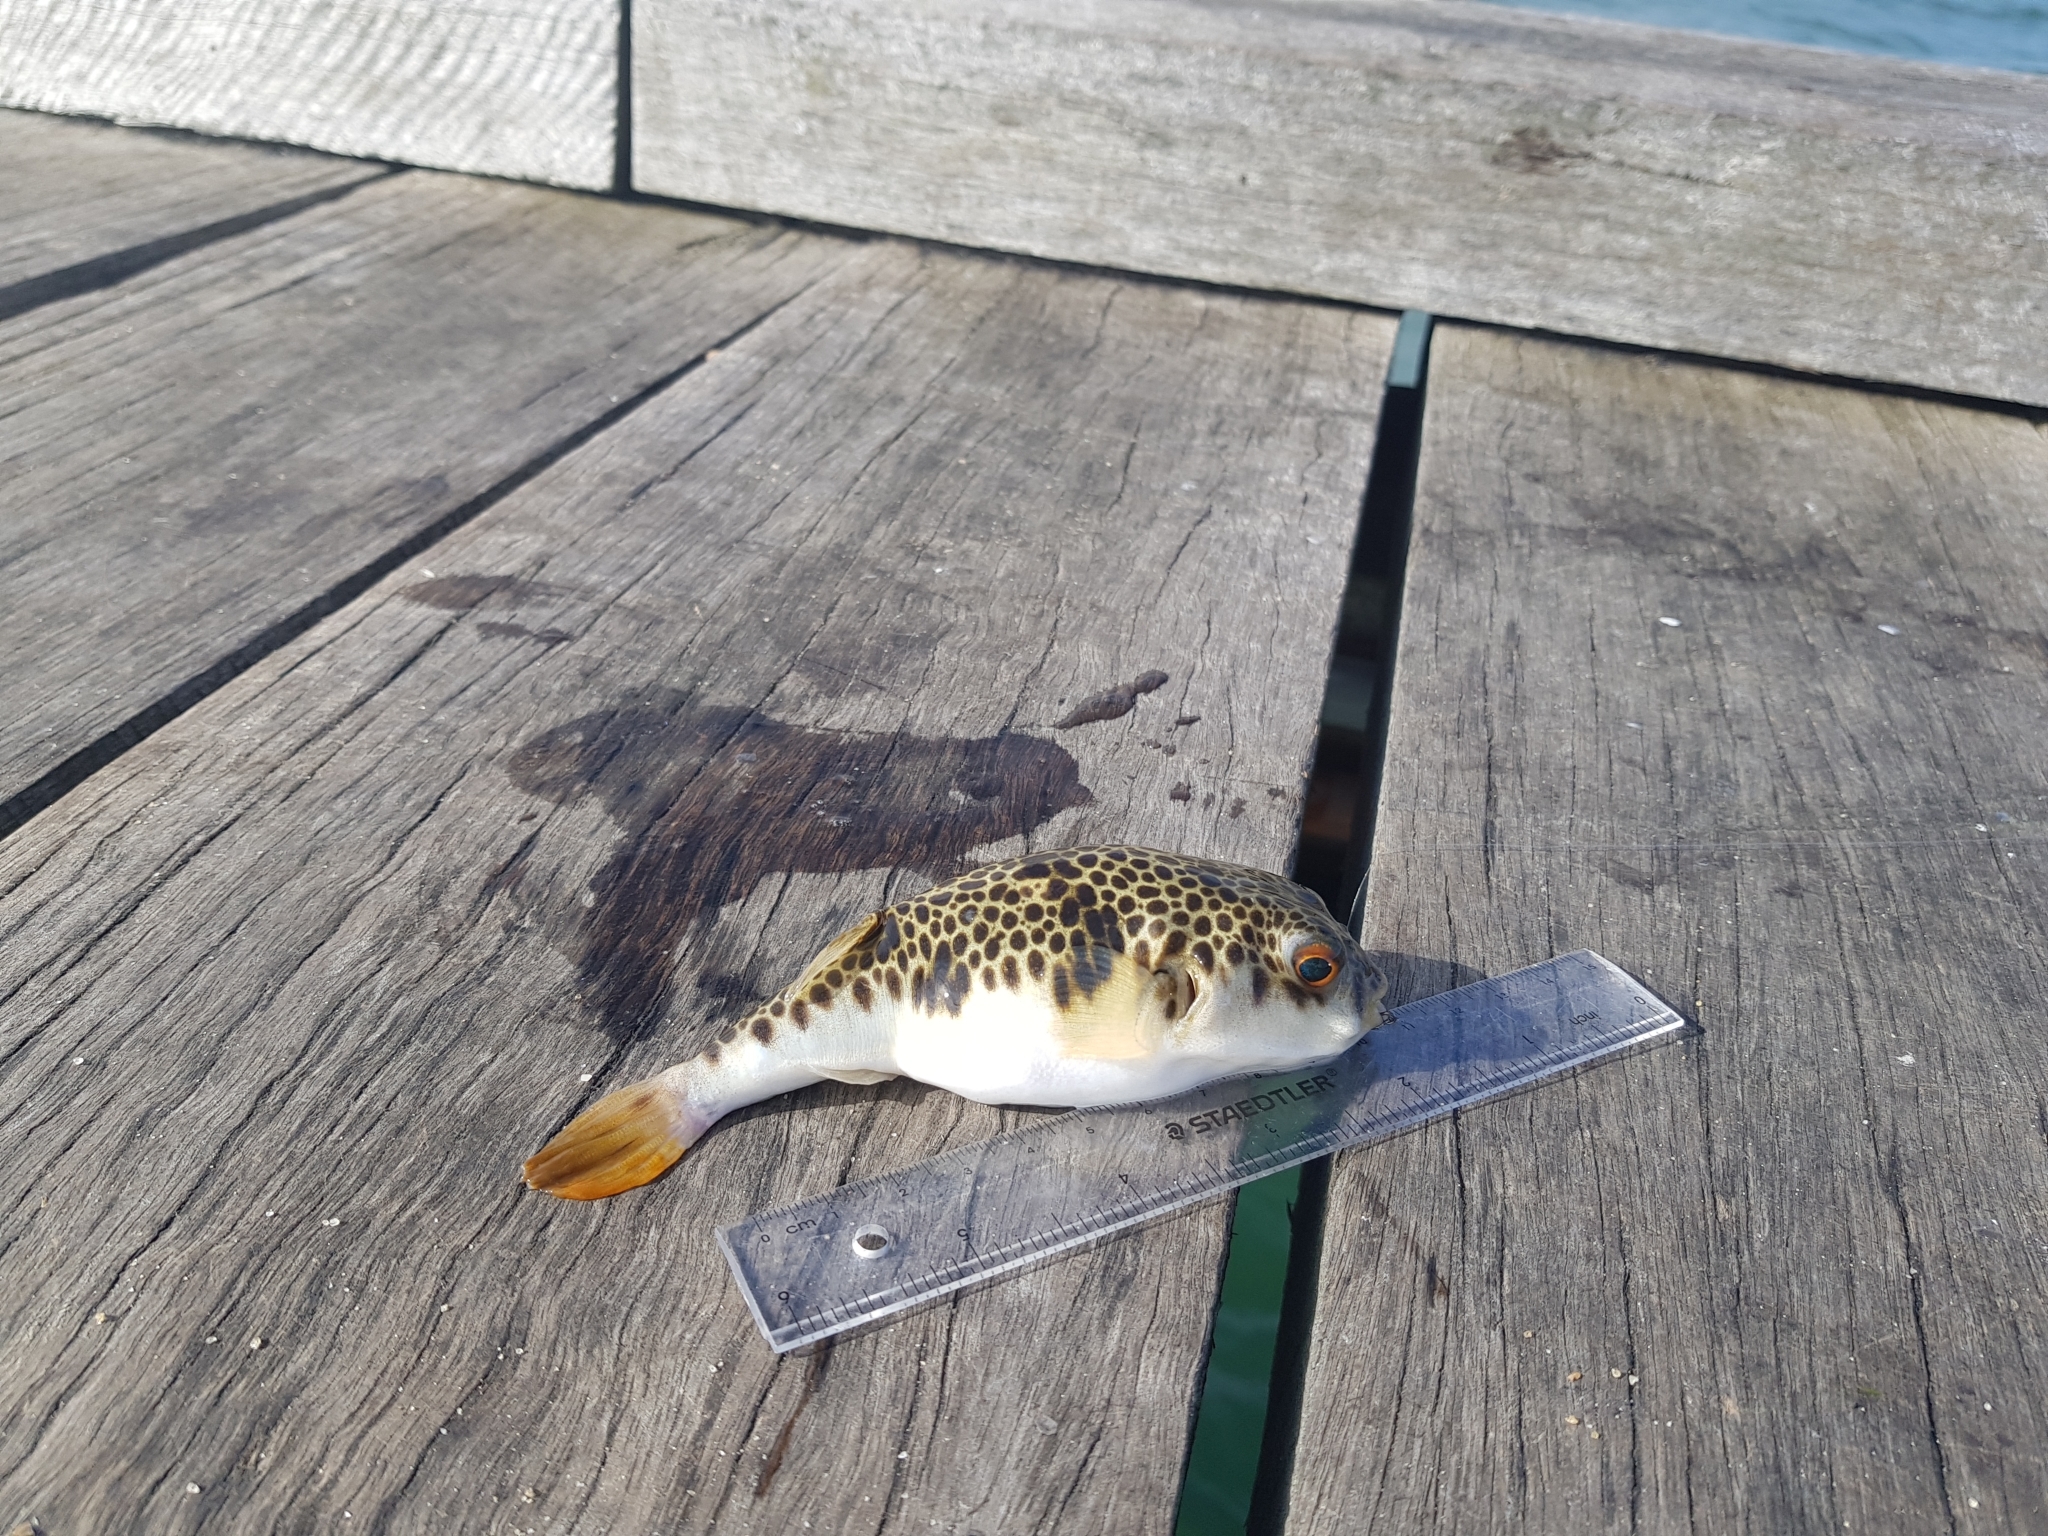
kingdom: Animalia
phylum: Chordata
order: Tetraodontiformes
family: Tetraodontidae
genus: Tetractenos
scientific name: Tetractenos glaber
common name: Smooth toadfish
